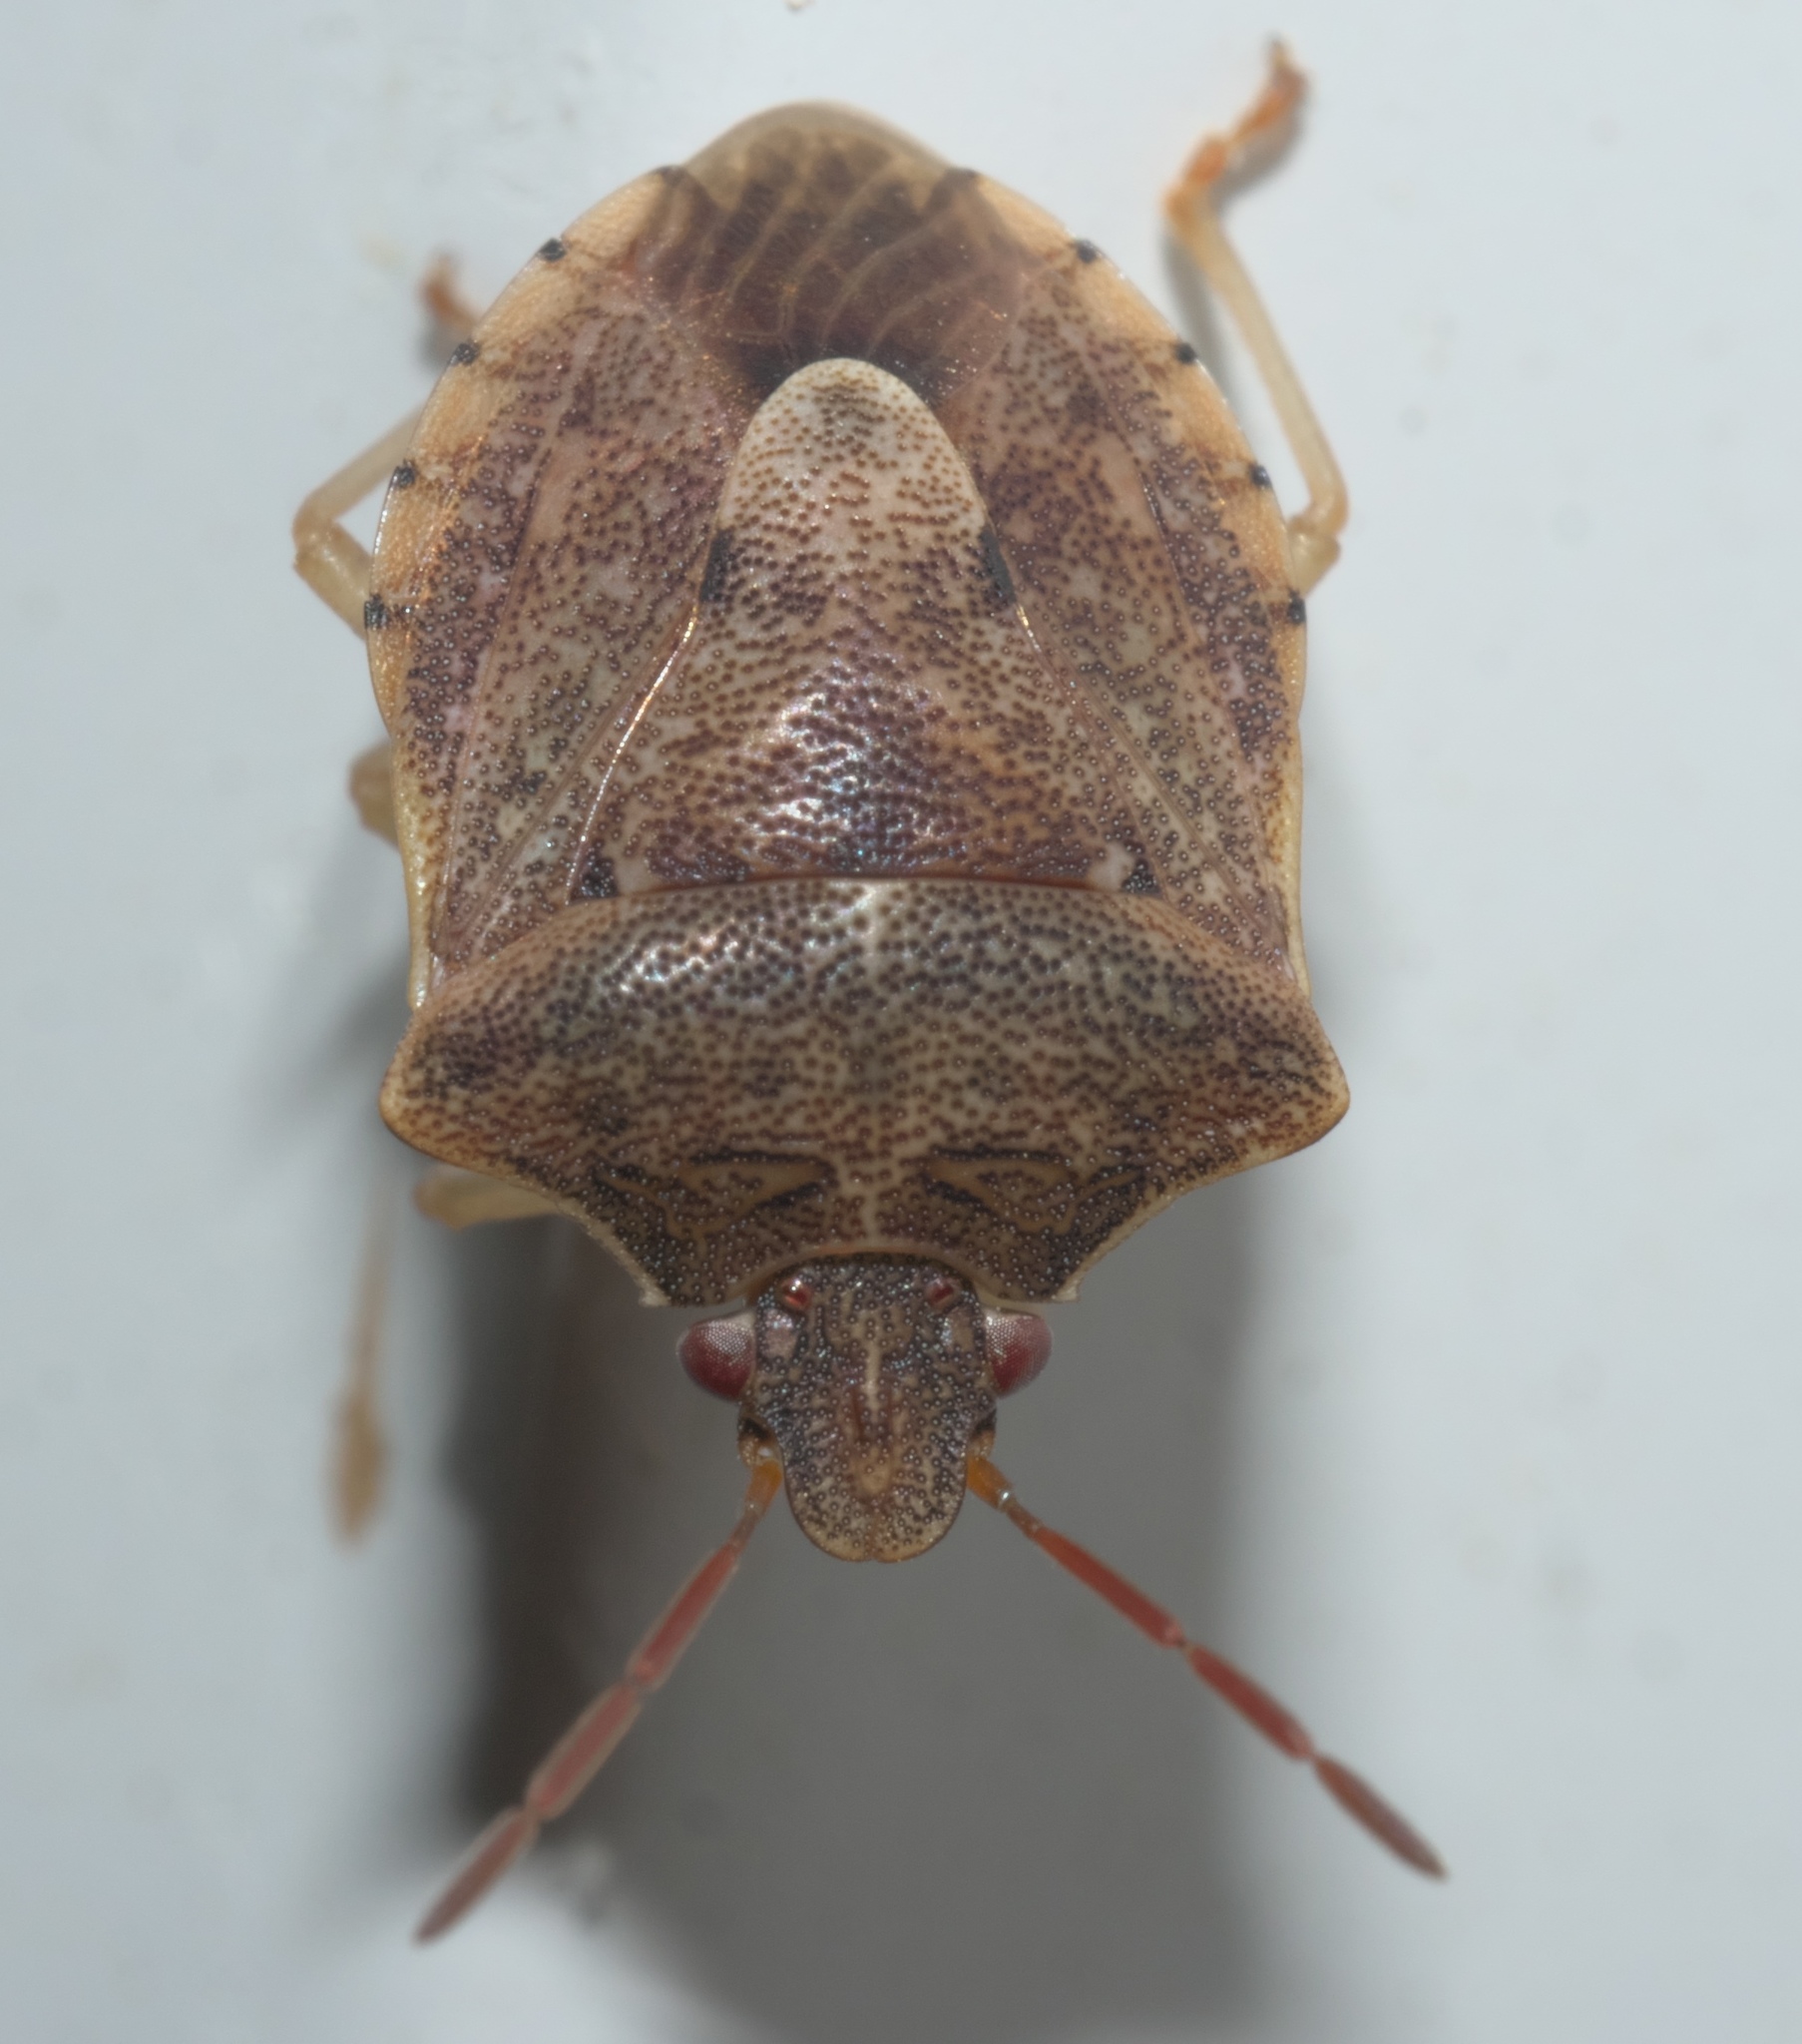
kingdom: Animalia
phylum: Arthropoda
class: Insecta
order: Hemiptera
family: Pentatomidae
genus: Dendrocoris
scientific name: Dendrocoris humeralis
